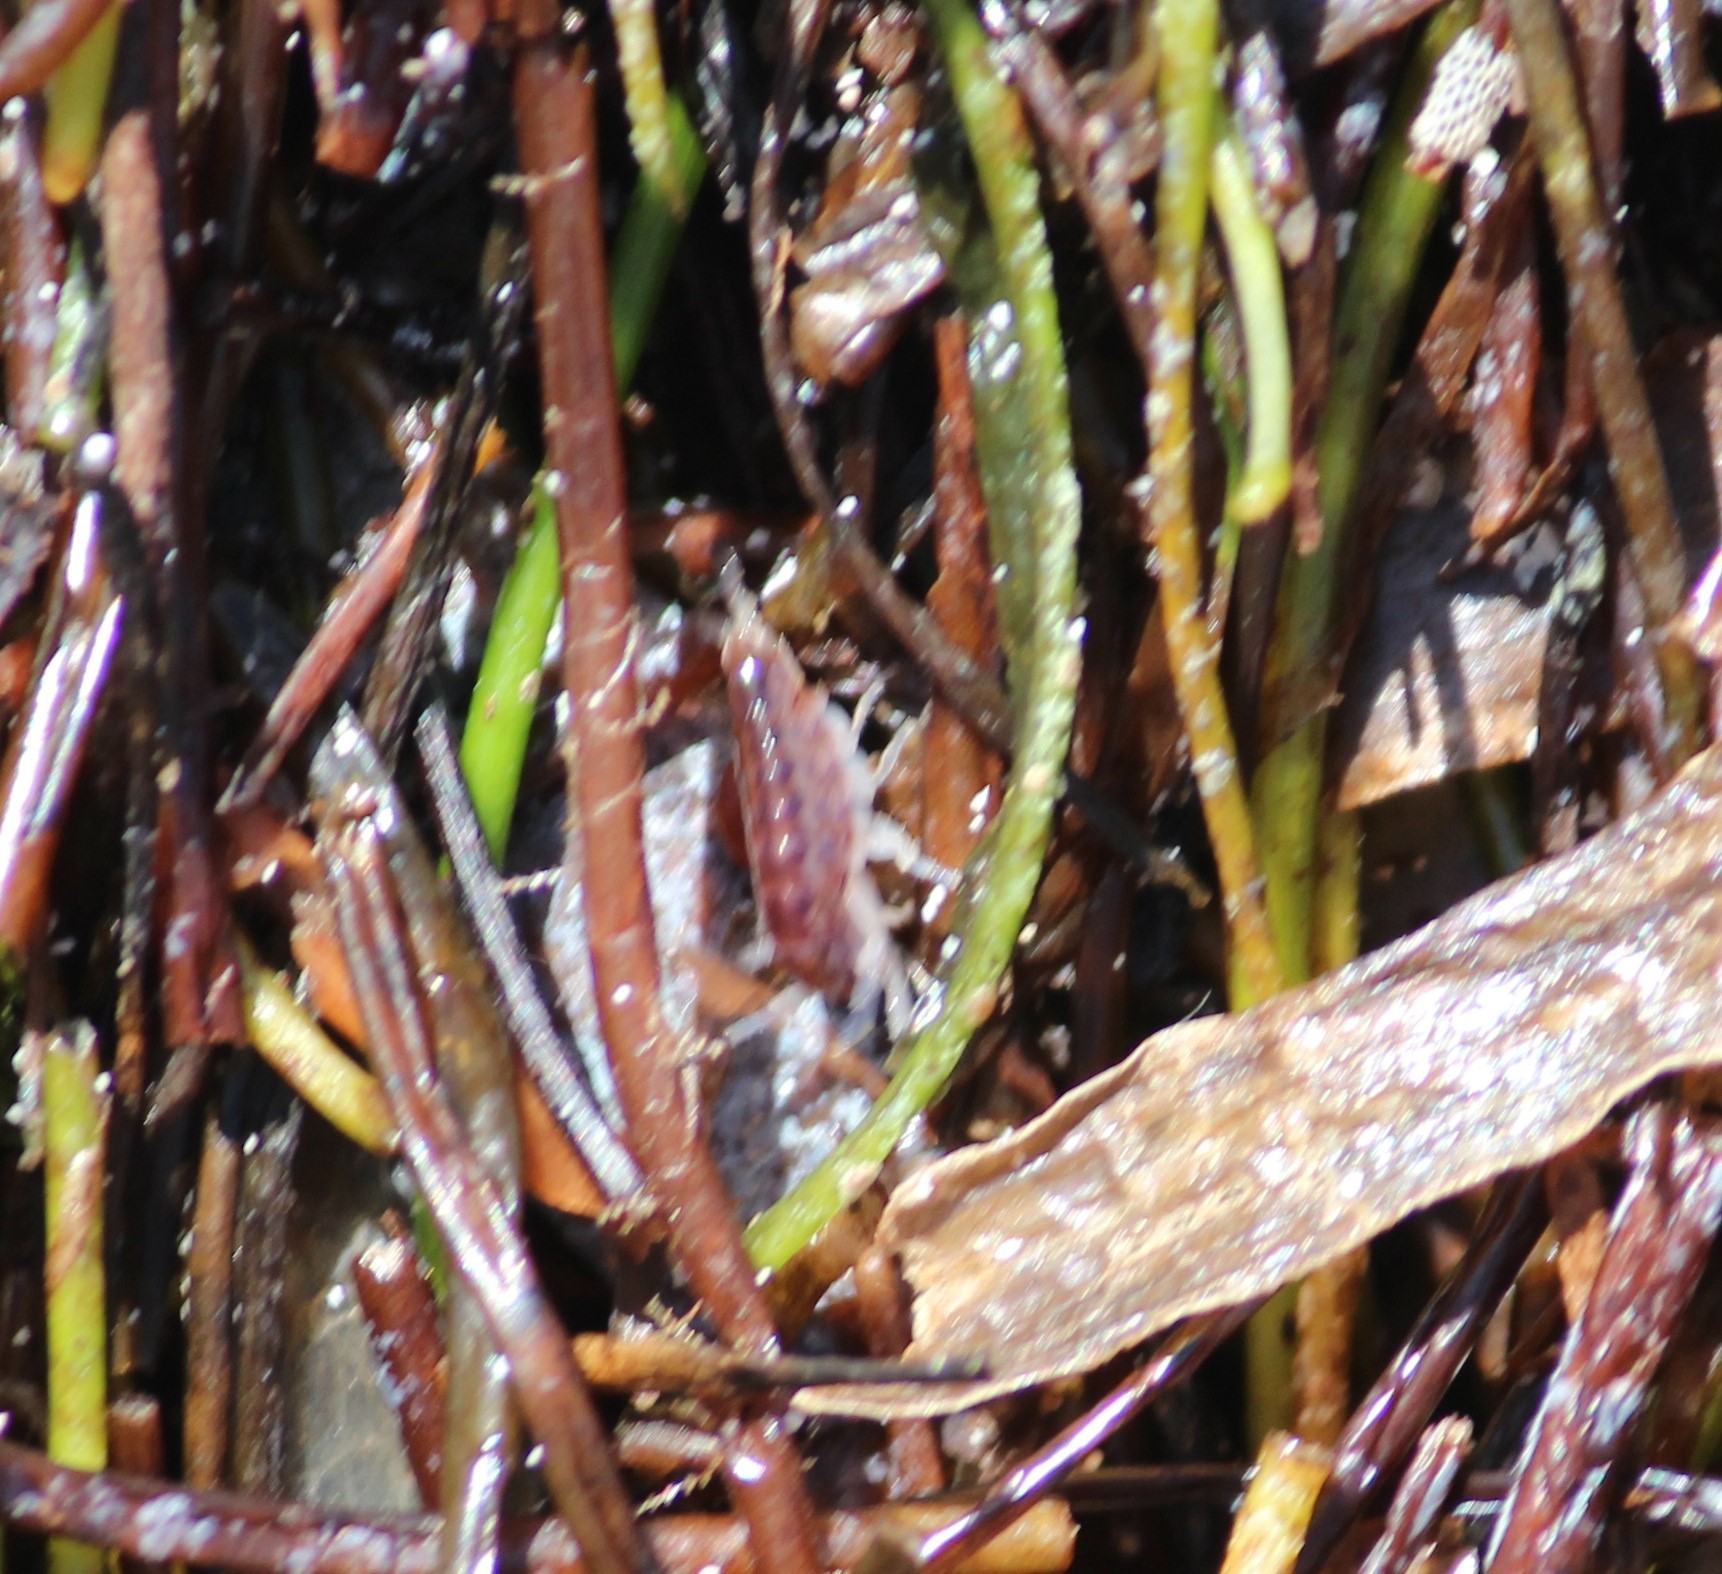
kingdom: Animalia
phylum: Arthropoda
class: Malacostraca
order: Amphipoda
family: Talitridae
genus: Mexorchestia
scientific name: Mexorchestia carpenteri
